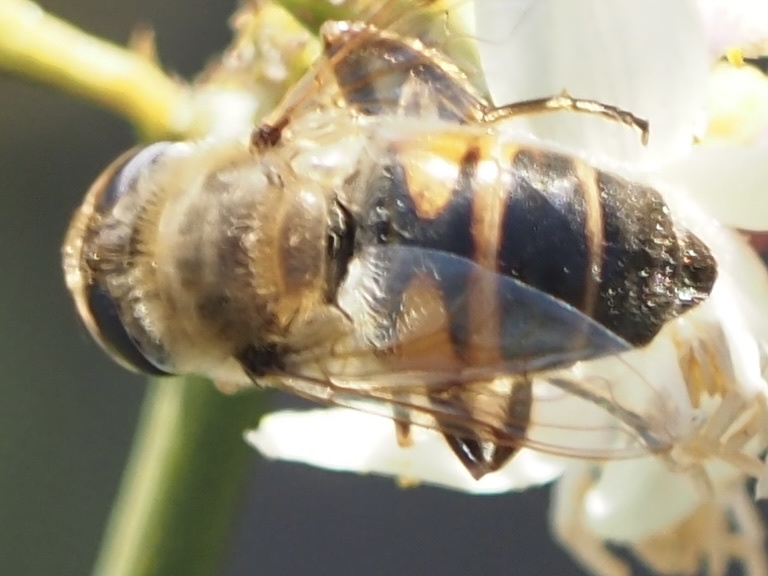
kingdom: Animalia
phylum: Arthropoda
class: Insecta
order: Diptera
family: Syrphidae
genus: Eristalis
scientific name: Eristalis tenax
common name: Drone fly
